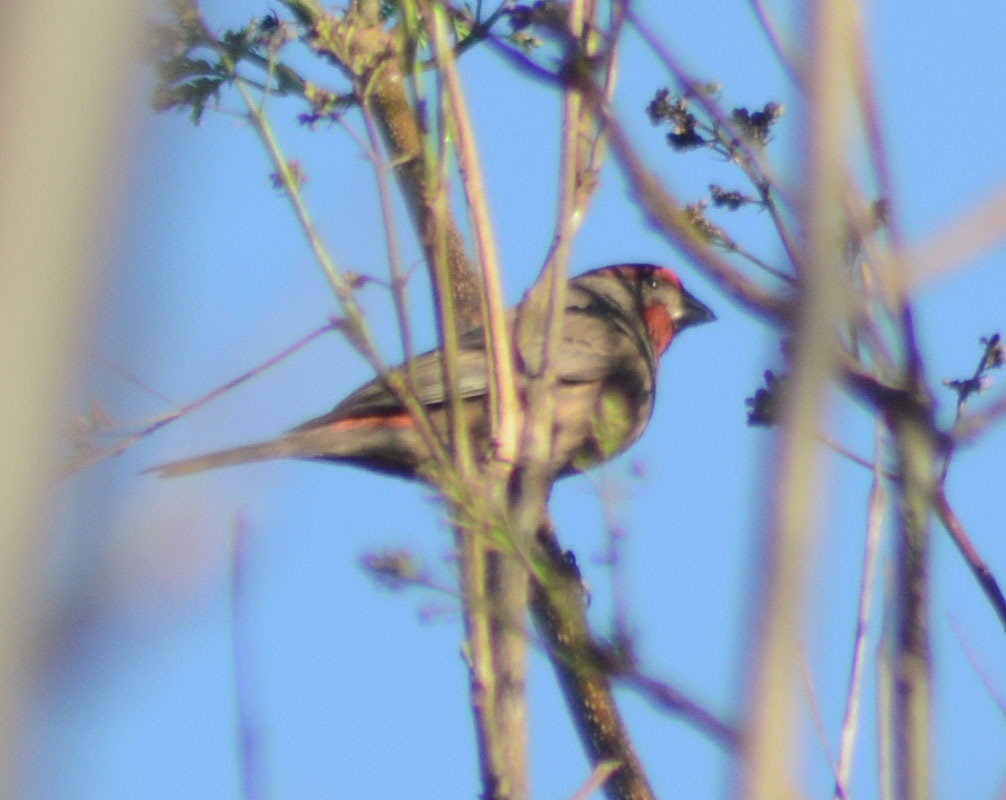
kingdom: Animalia
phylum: Chordata
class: Aves
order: Passeriformes
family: Fringillidae
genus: Haemorhous
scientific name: Haemorhous mexicanus
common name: House finch
